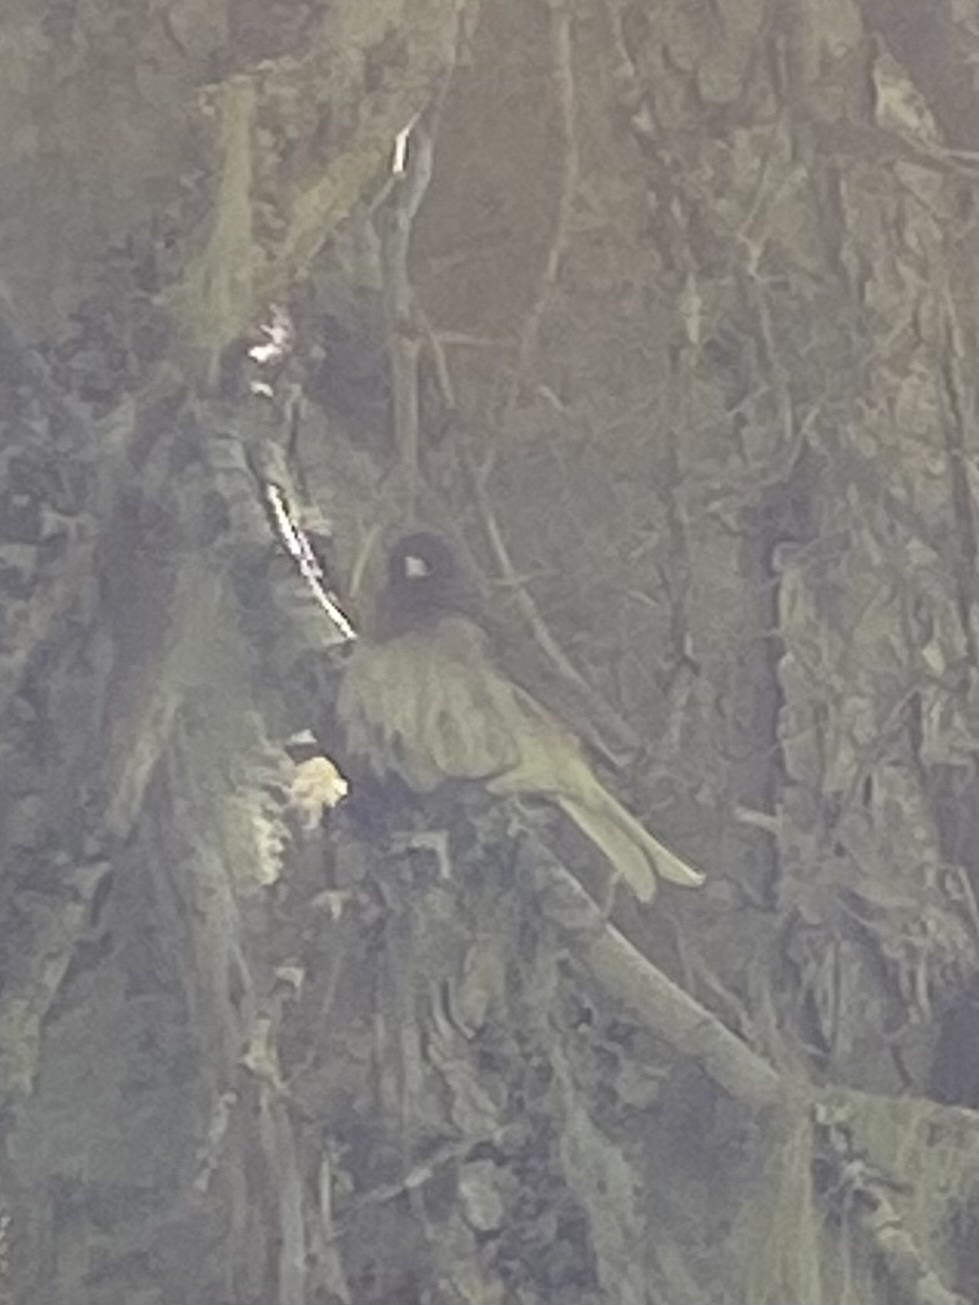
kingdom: Animalia
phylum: Chordata
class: Aves
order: Passeriformes
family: Passerellidae
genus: Junco
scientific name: Junco hyemalis
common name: Dark-eyed junco
